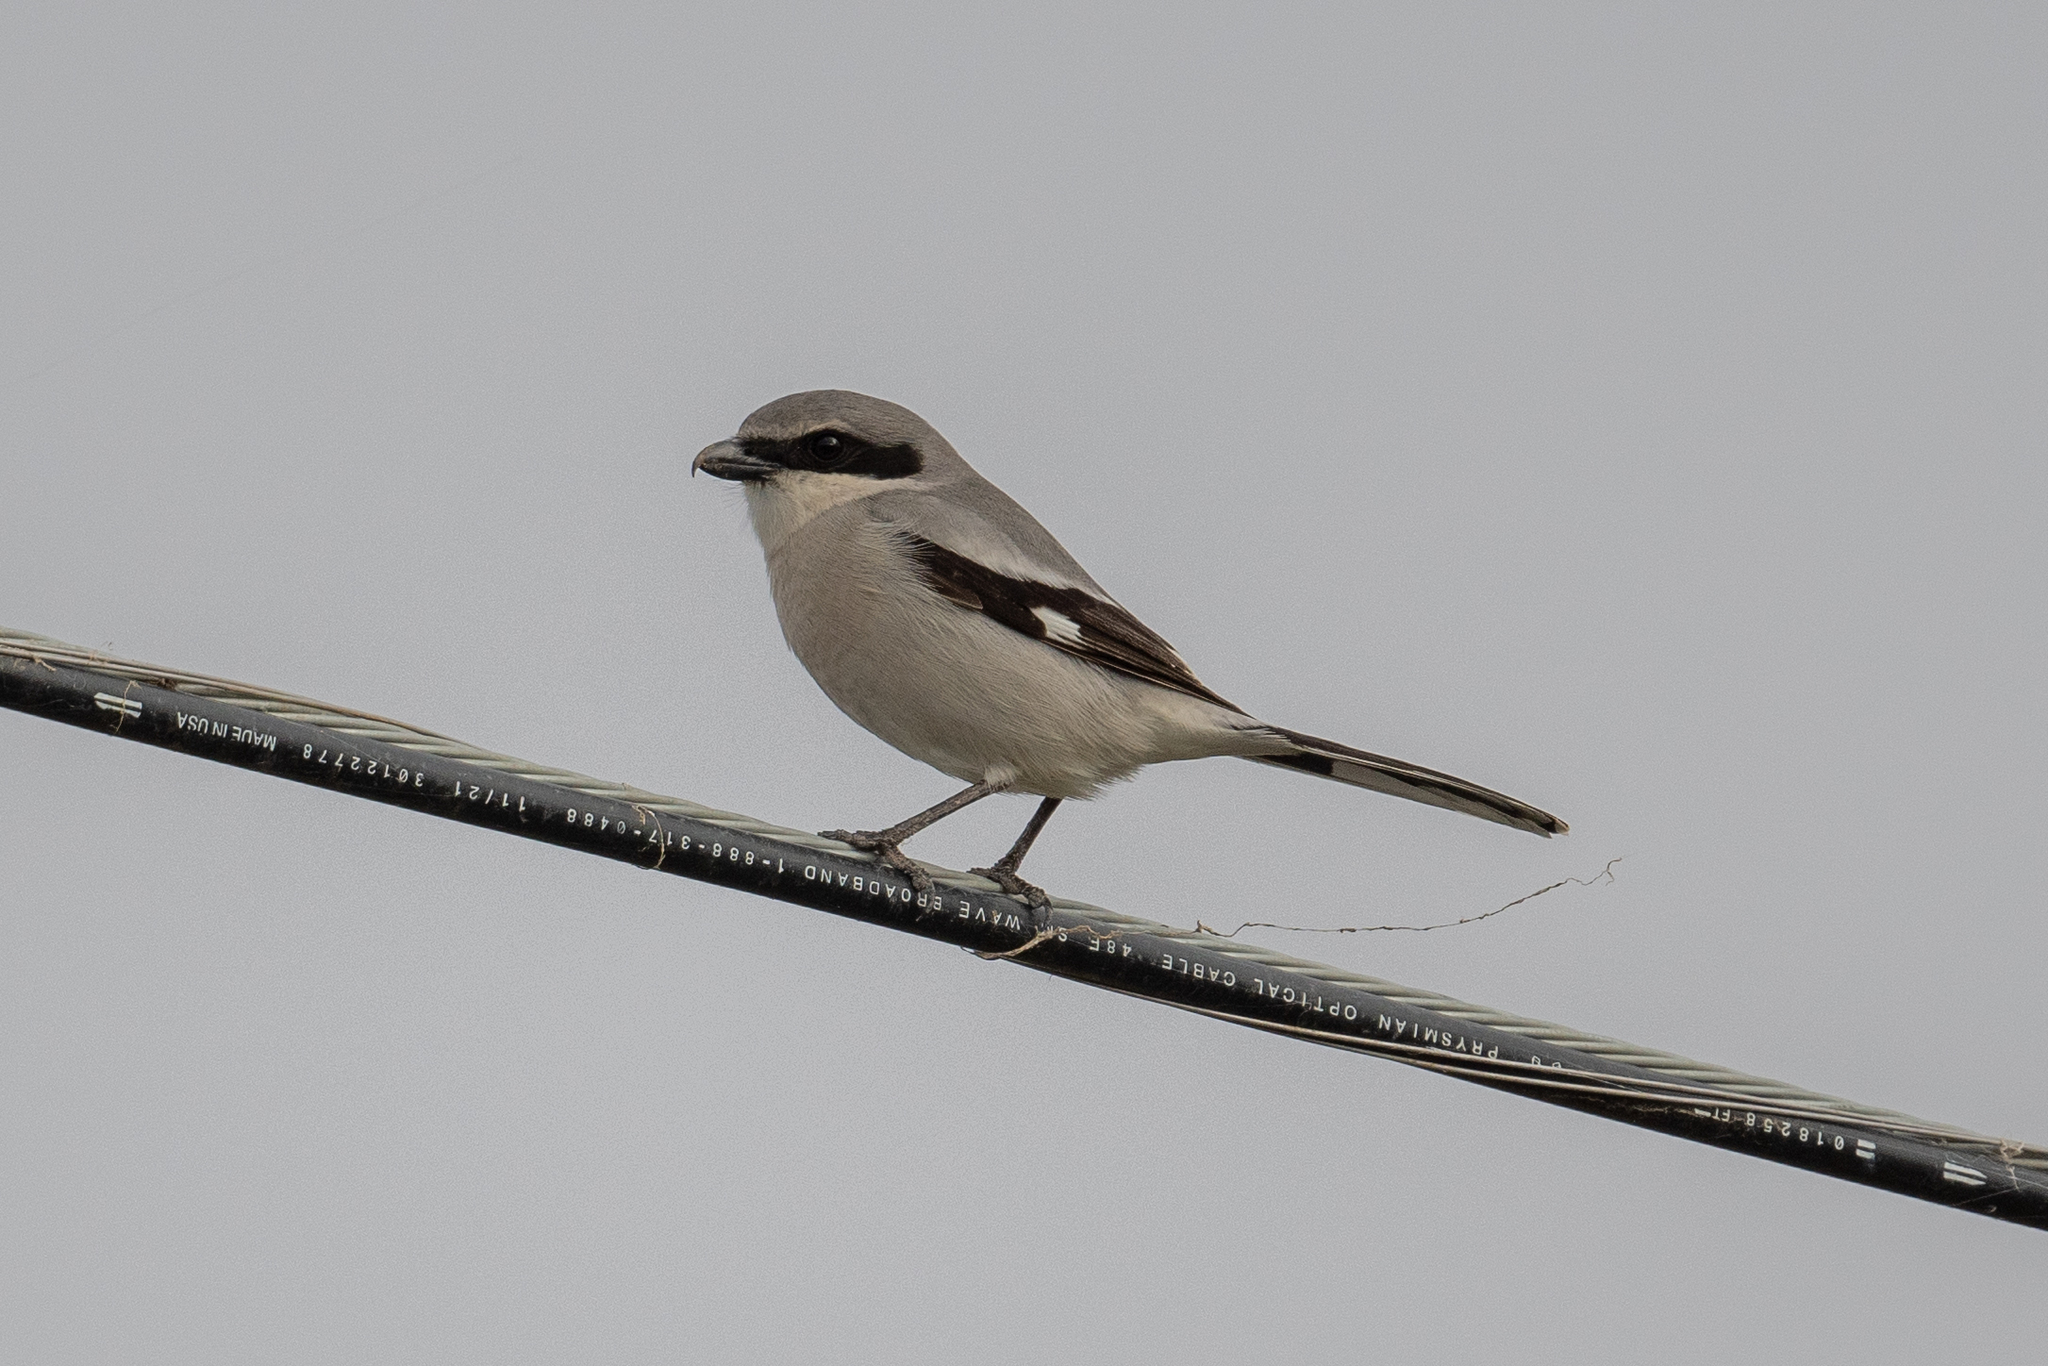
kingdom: Animalia
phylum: Chordata
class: Aves
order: Passeriformes
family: Laniidae
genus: Lanius
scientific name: Lanius ludovicianus
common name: Loggerhead shrike
